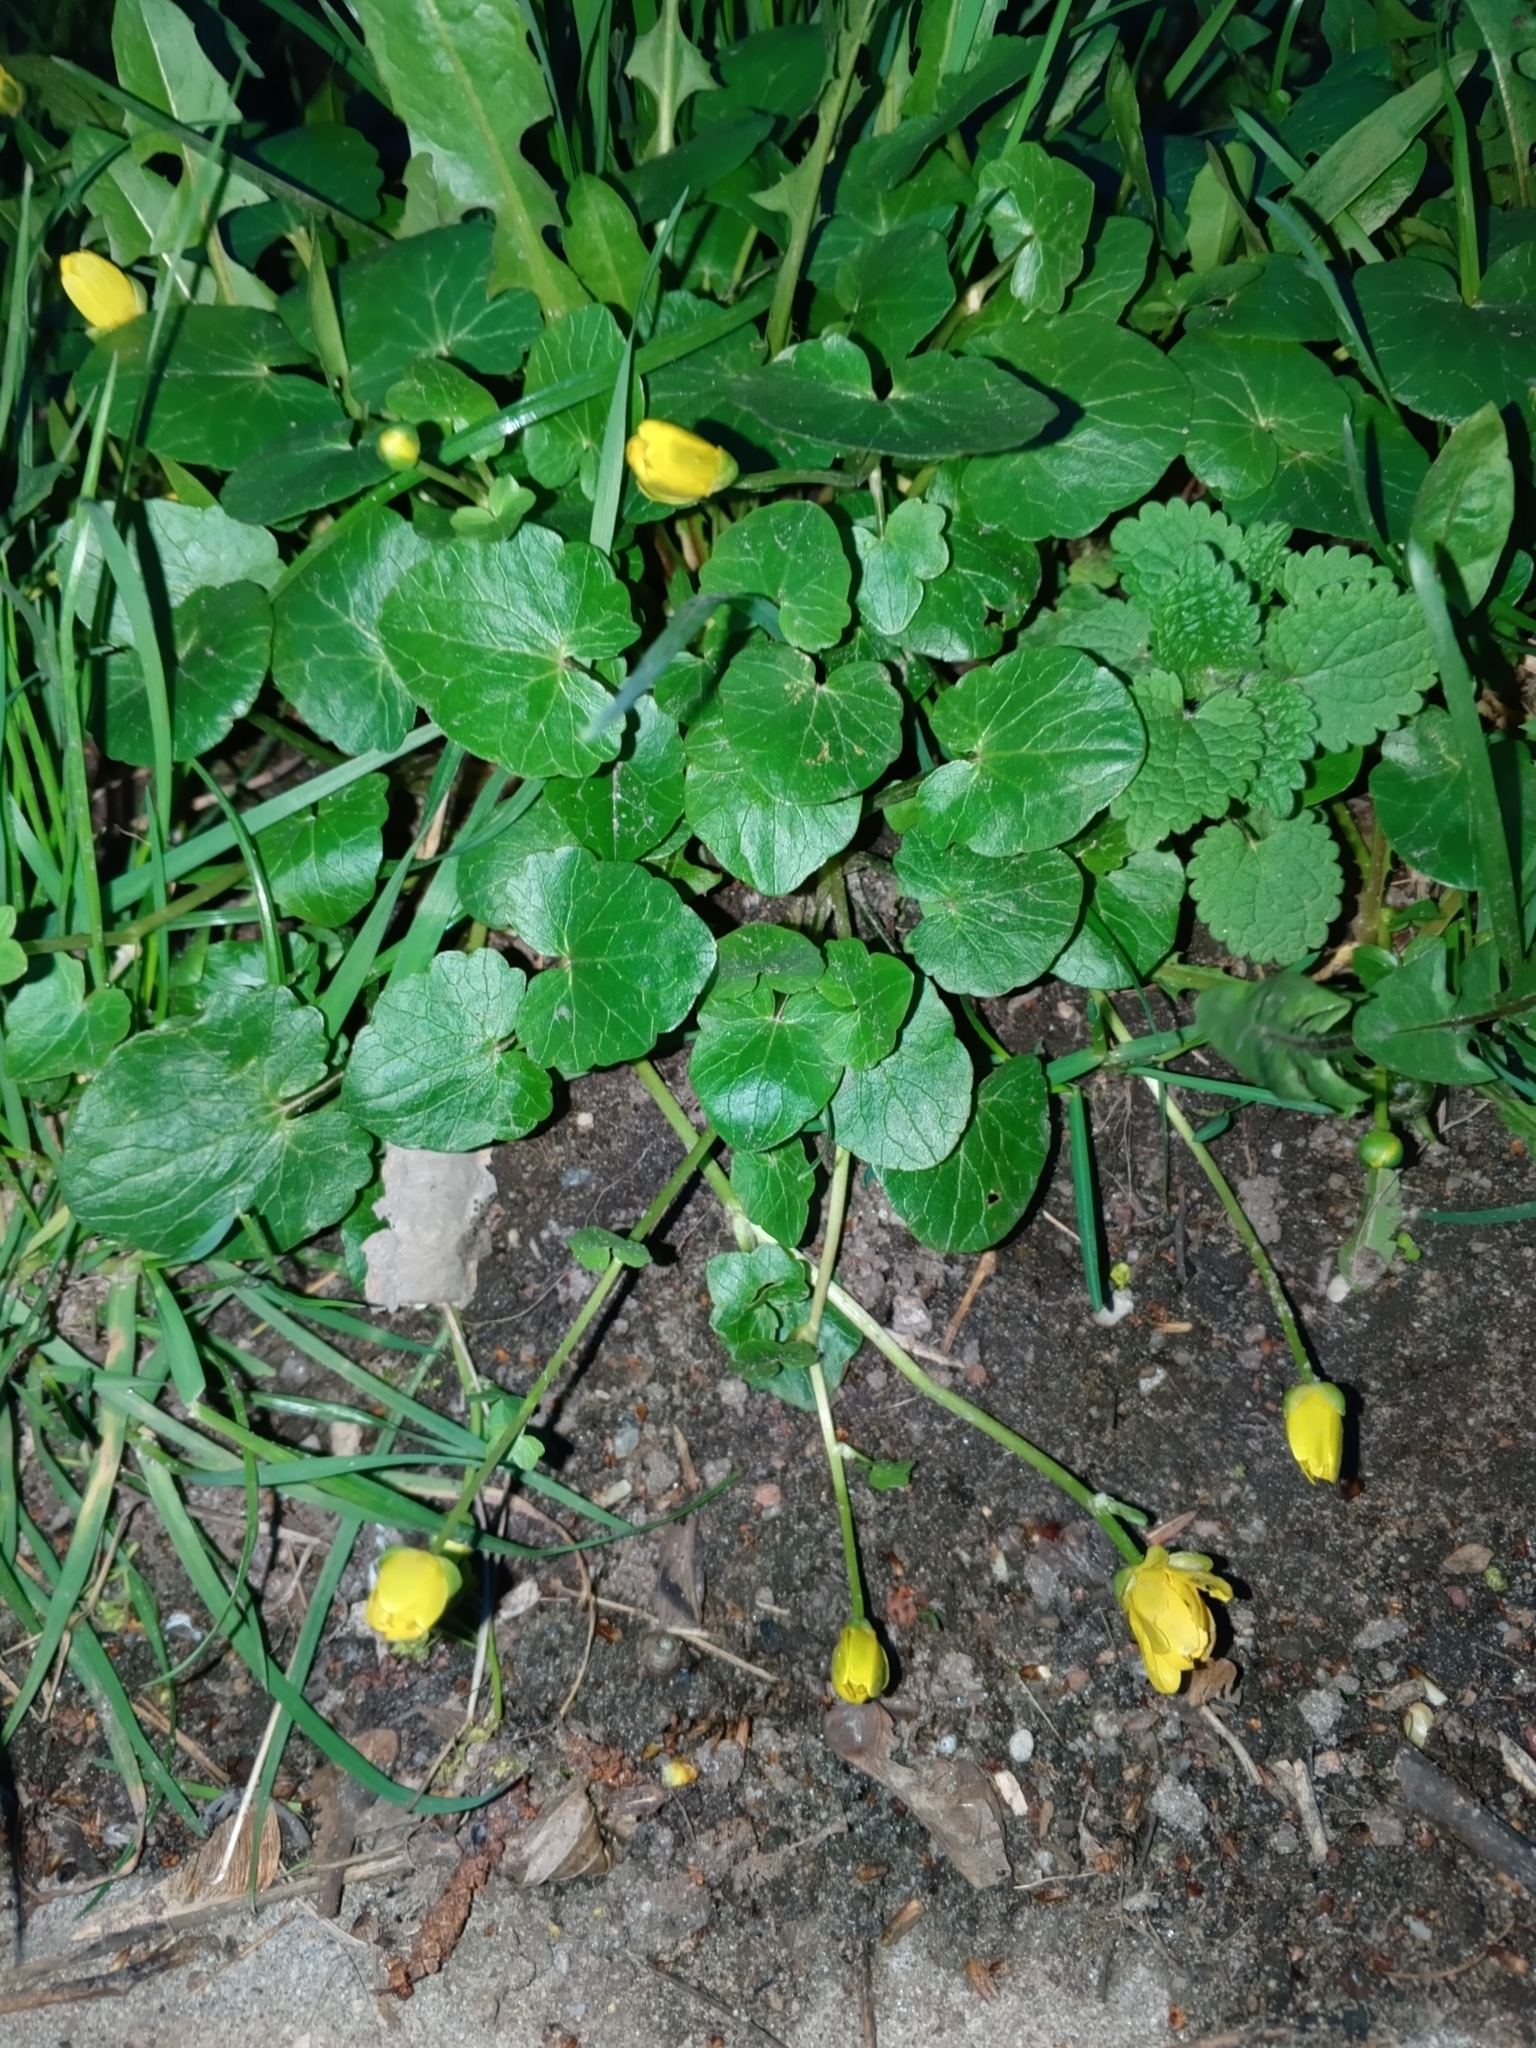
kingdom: Plantae
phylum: Tracheophyta
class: Magnoliopsida
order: Ranunculales
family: Ranunculaceae
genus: Ficaria
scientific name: Ficaria verna
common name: Lesser celandine
